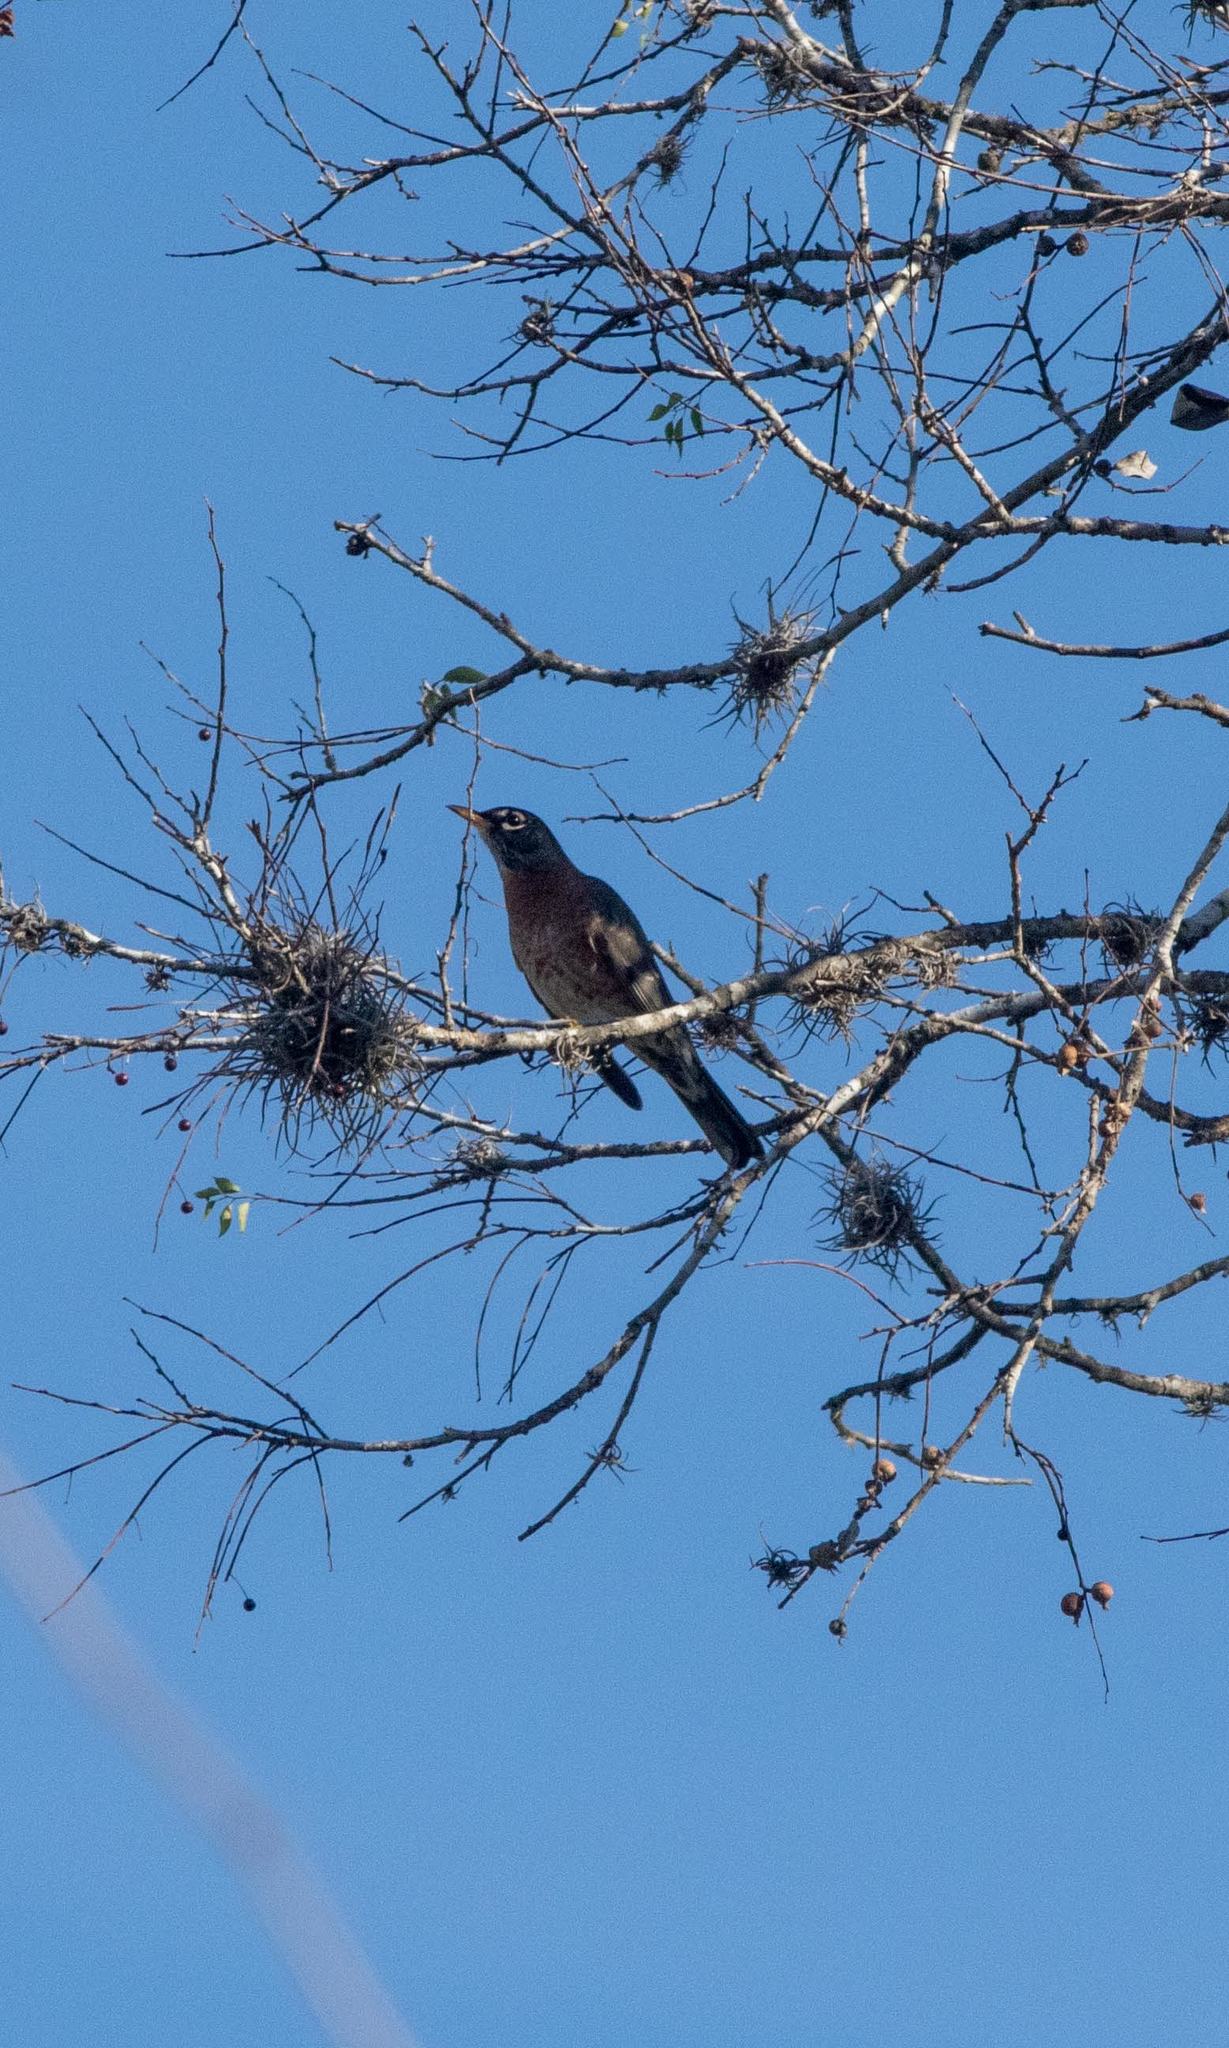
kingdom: Animalia
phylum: Chordata
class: Aves
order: Passeriformes
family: Turdidae
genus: Turdus
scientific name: Turdus migratorius
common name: American robin
